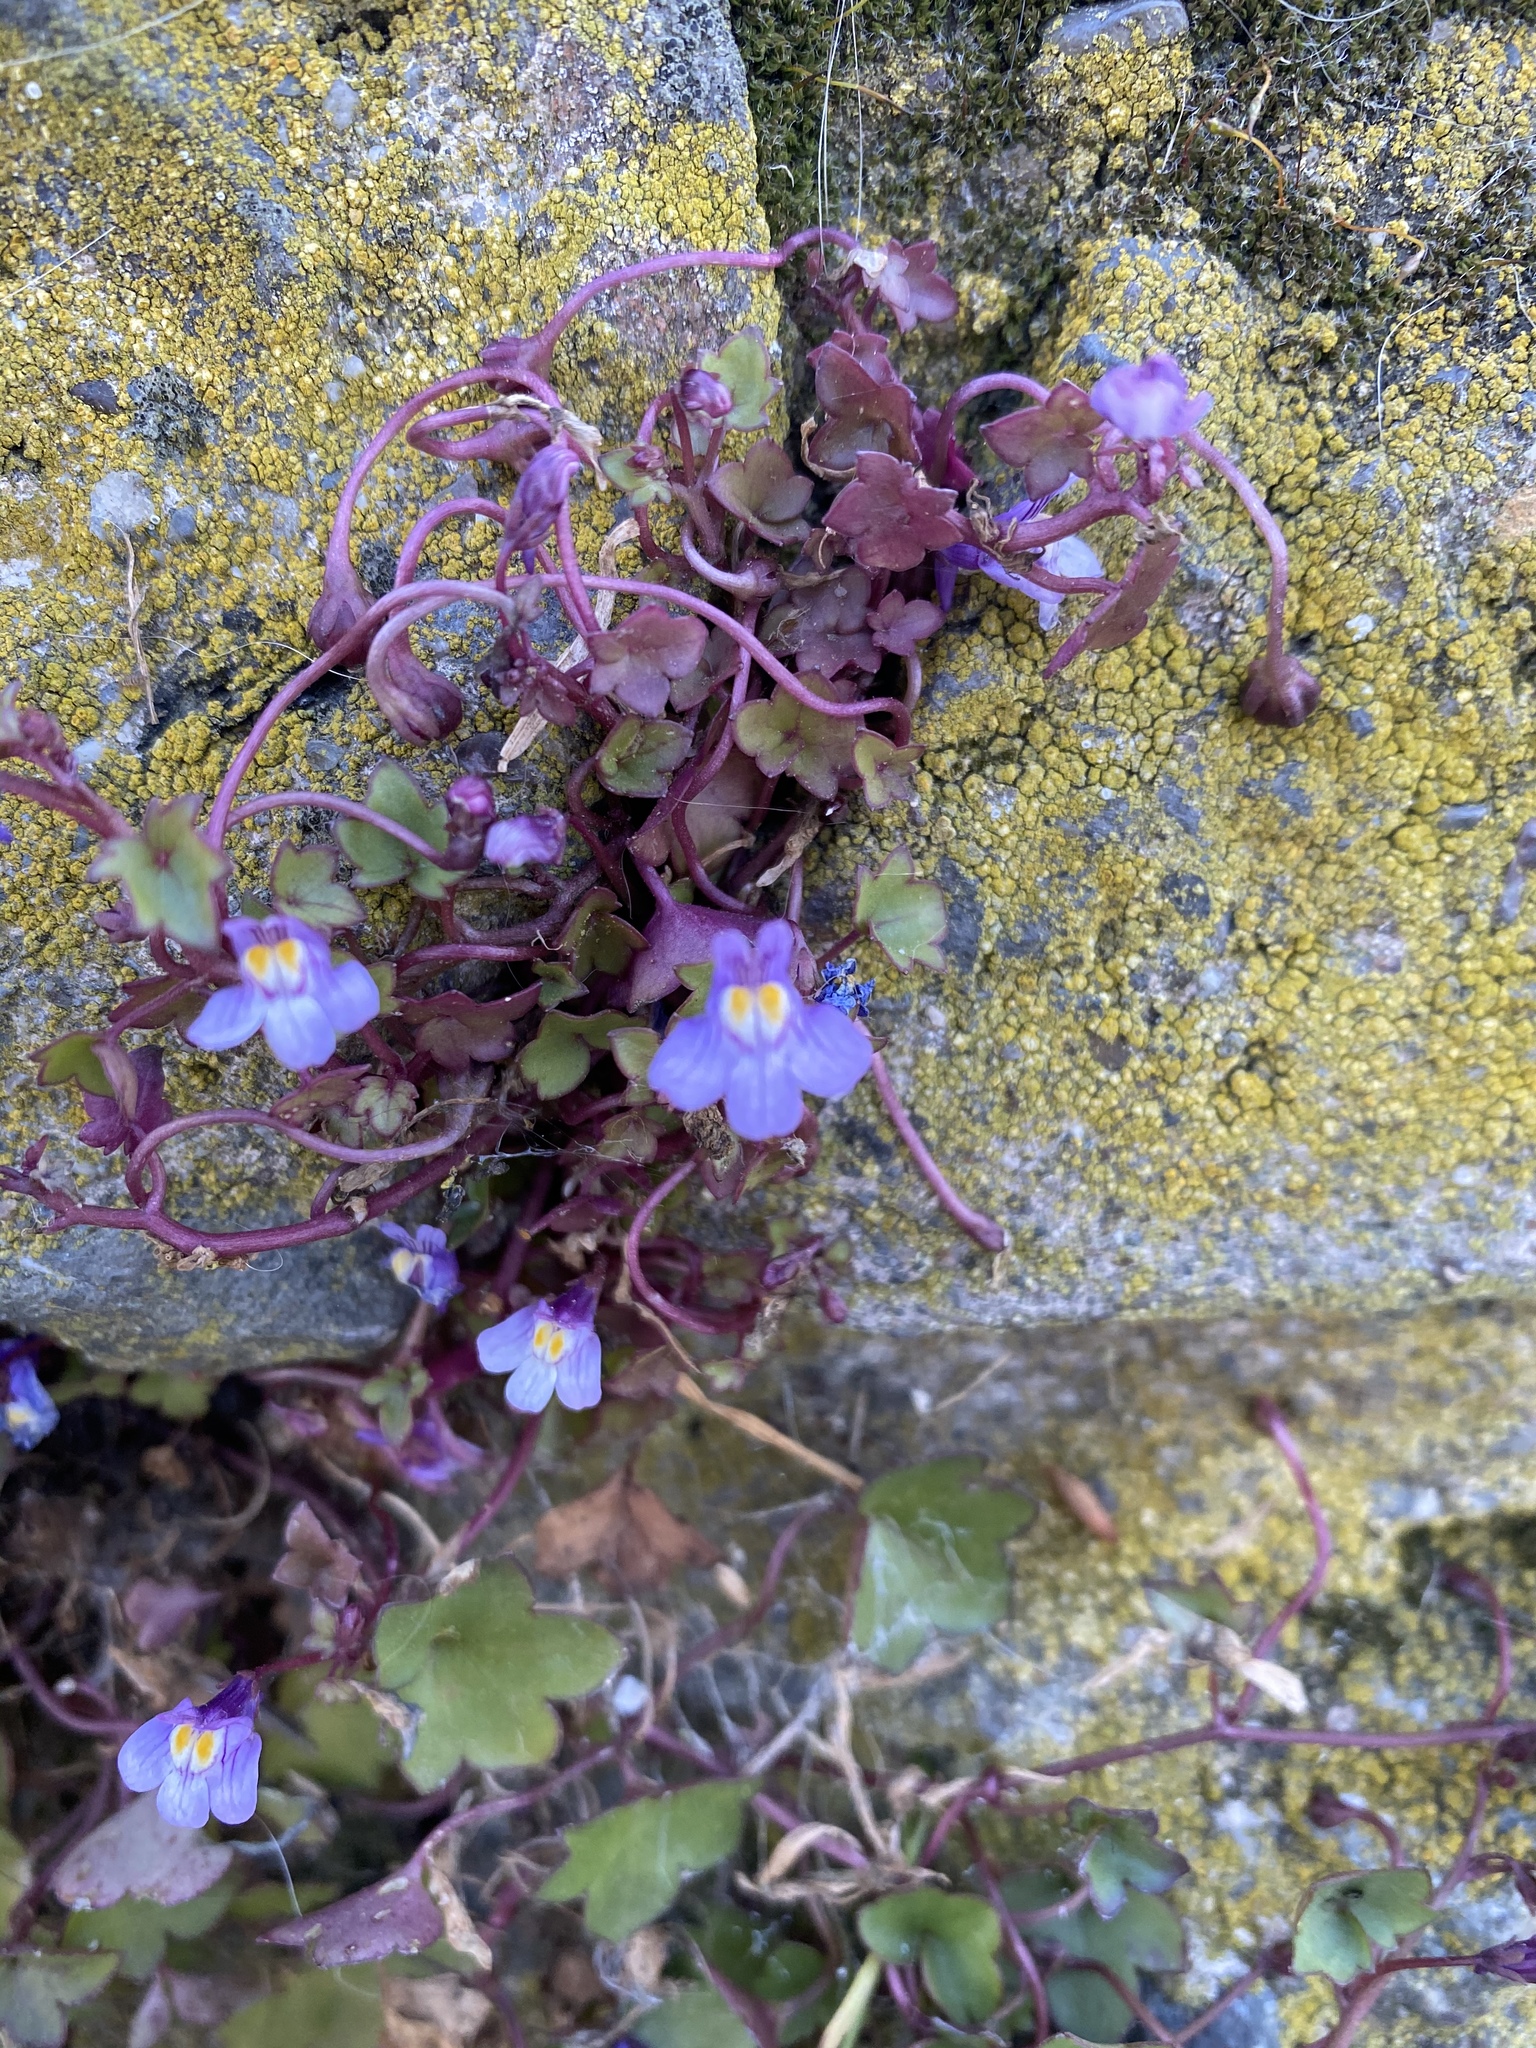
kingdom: Plantae
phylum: Tracheophyta
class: Magnoliopsida
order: Lamiales
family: Plantaginaceae
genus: Cymbalaria
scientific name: Cymbalaria muralis
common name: Ivy-leaved toadflax
